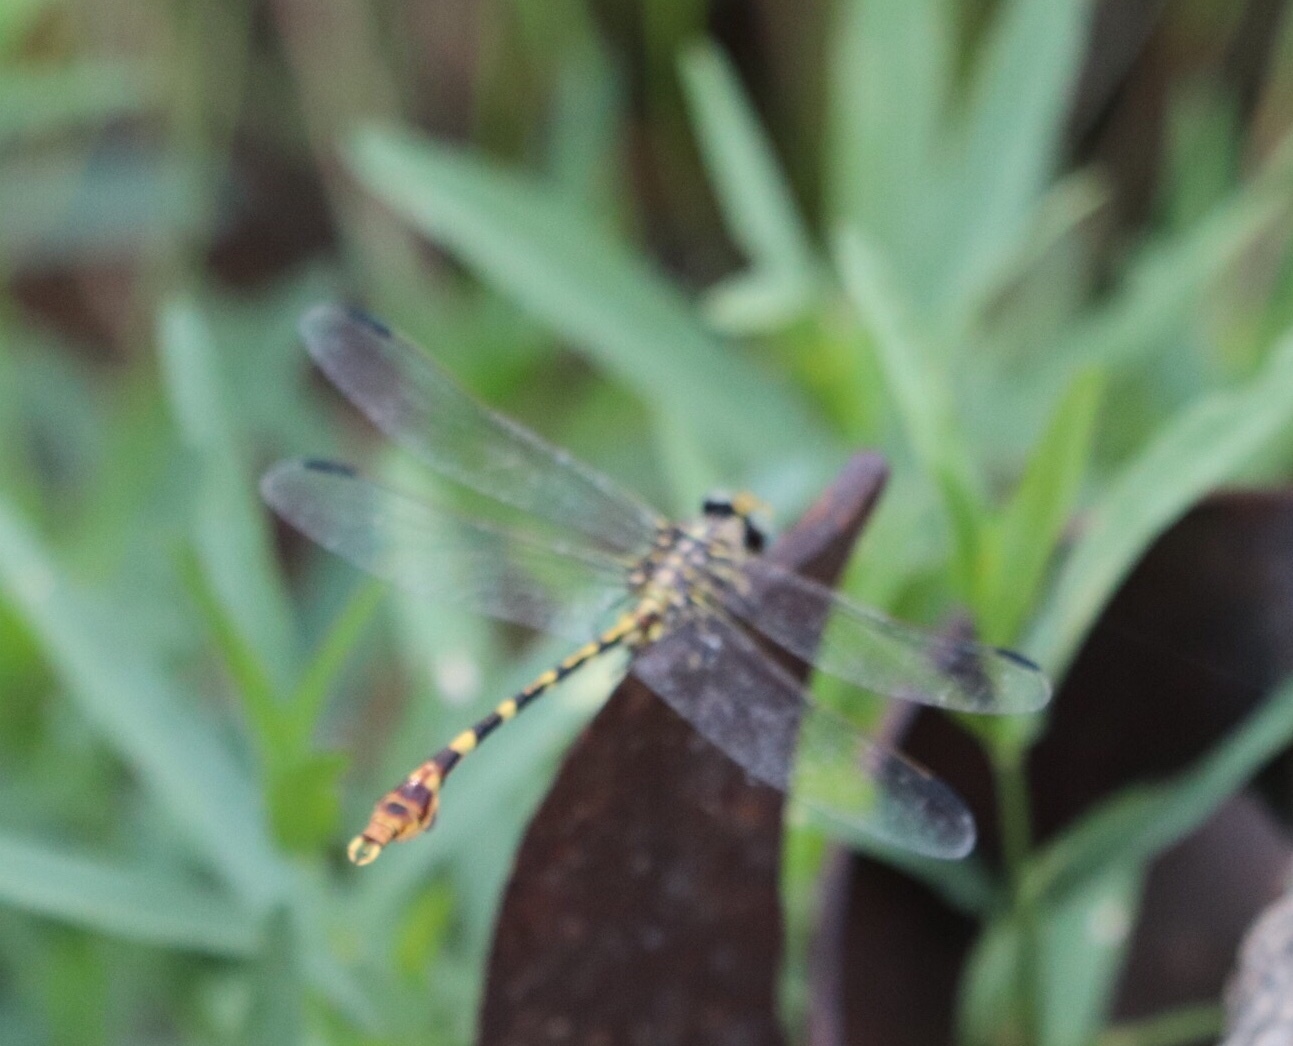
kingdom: Animalia
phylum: Arthropoda
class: Insecta
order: Odonata
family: Gomphidae
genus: Phyllogomphoides
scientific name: Phyllogomphoides stigmatus
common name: Four-striped leaftail
